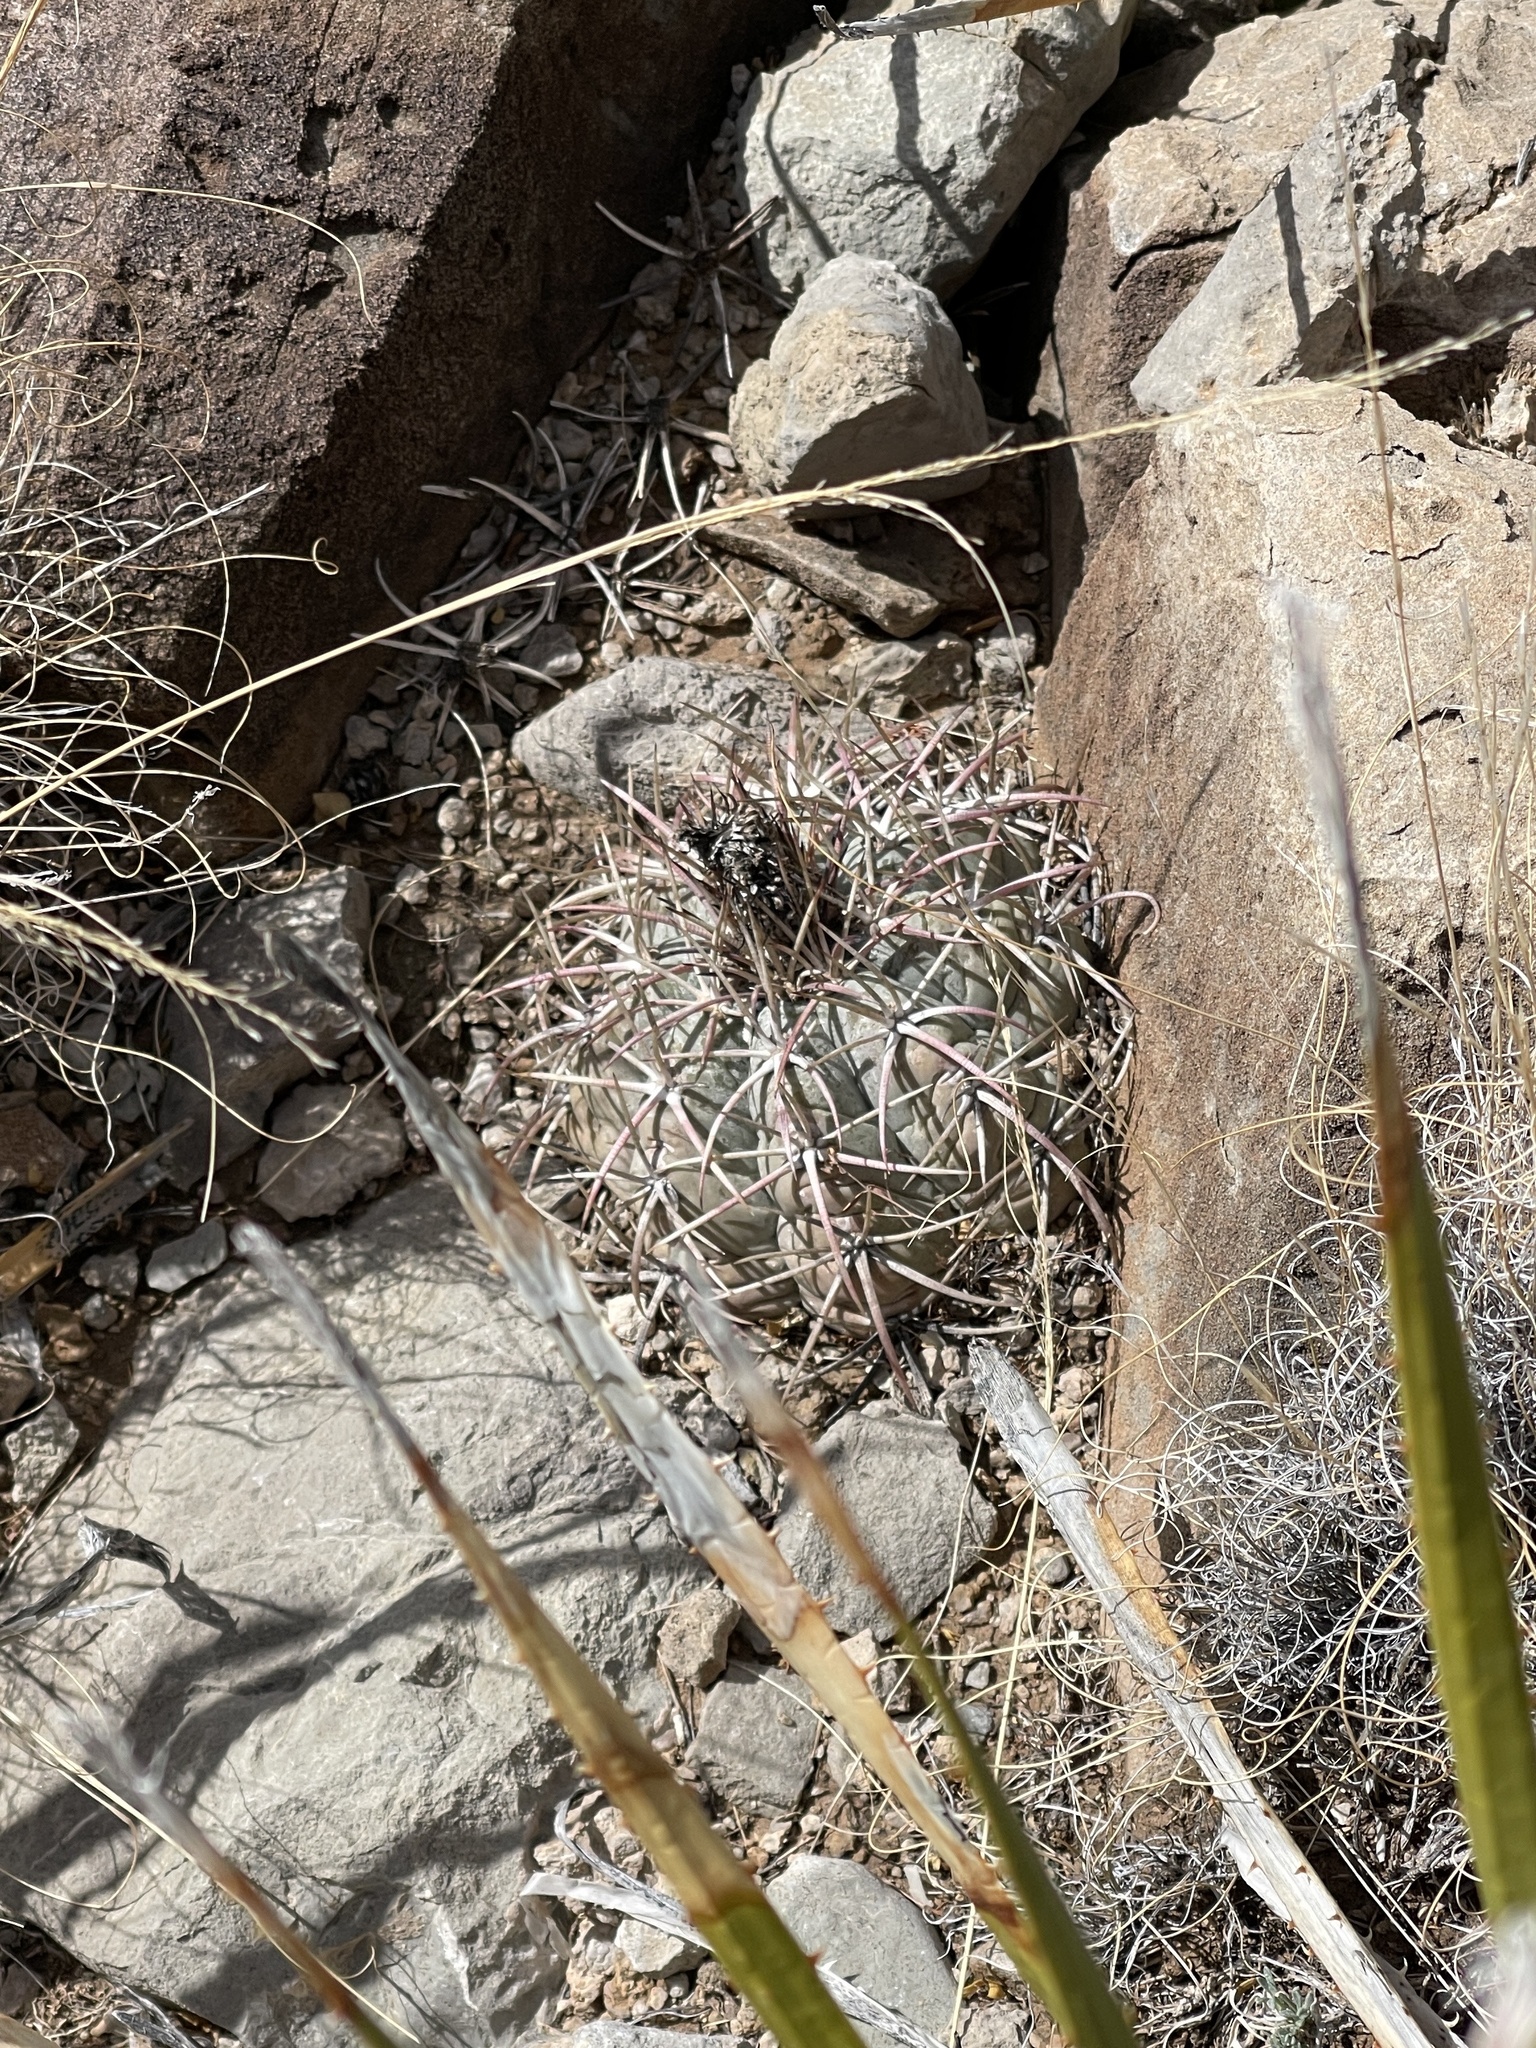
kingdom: Plantae
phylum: Tracheophyta
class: Magnoliopsida
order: Caryophyllales
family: Cactaceae
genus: Echinocactus
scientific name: Echinocactus horizonthalonius
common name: Devilshead
